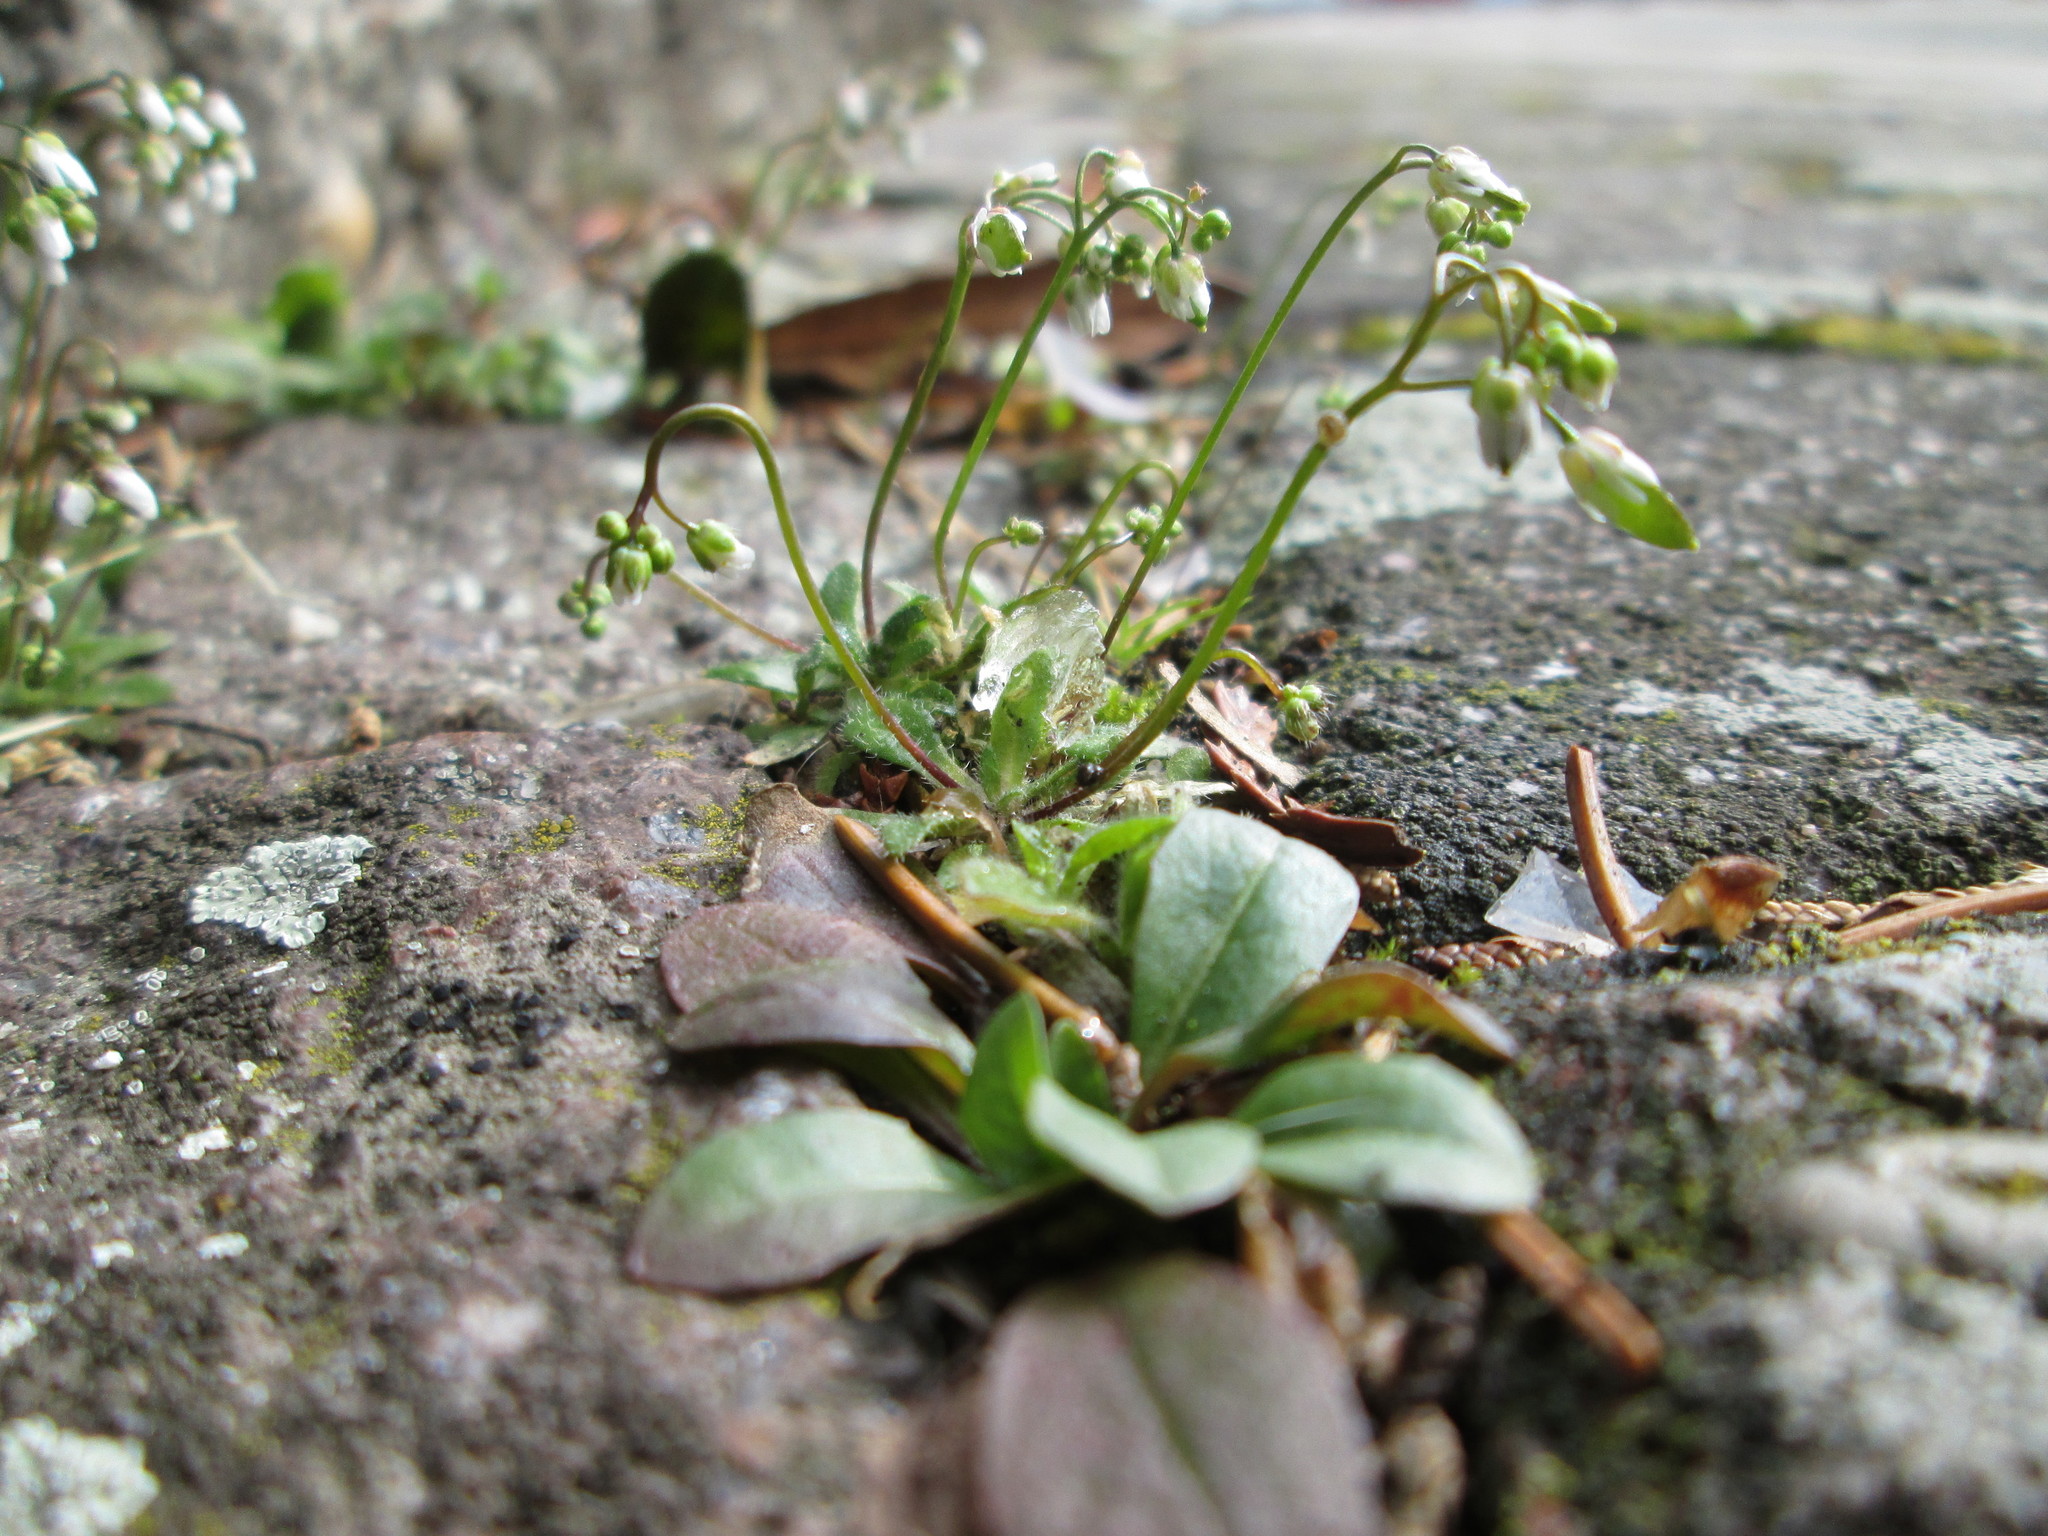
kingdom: Plantae
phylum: Tracheophyta
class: Magnoliopsida
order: Brassicales
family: Brassicaceae
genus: Draba
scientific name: Draba verna
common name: Spring draba
